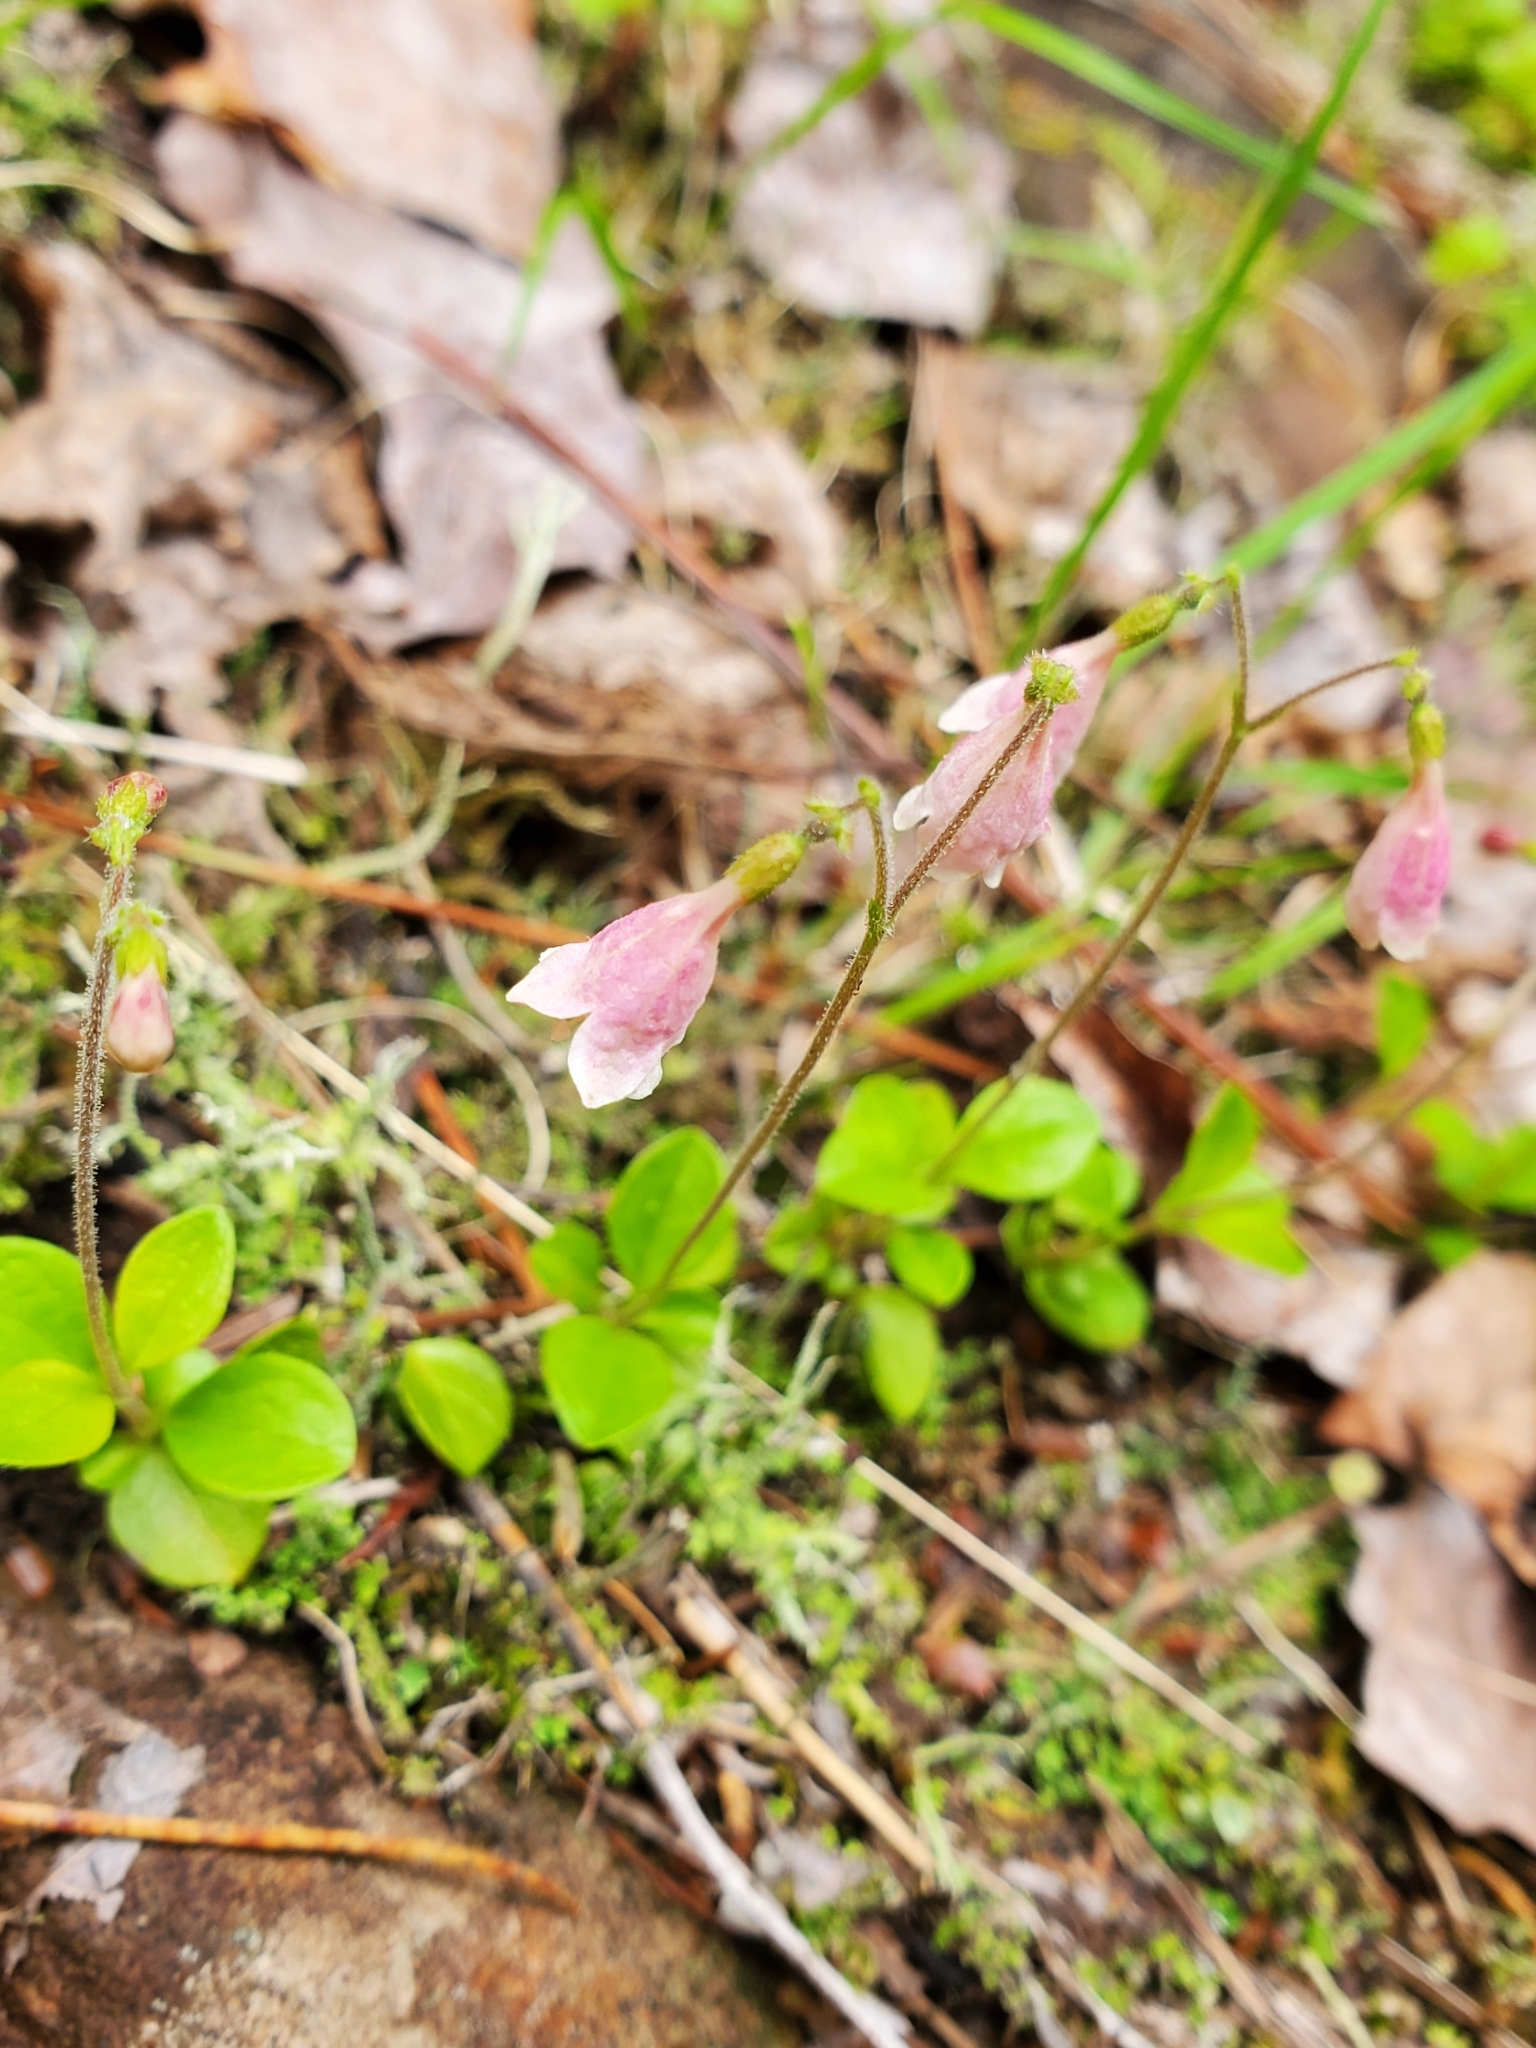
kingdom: Plantae
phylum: Tracheophyta
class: Magnoliopsida
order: Dipsacales
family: Caprifoliaceae
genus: Linnaea
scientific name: Linnaea borealis
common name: Twinflower
